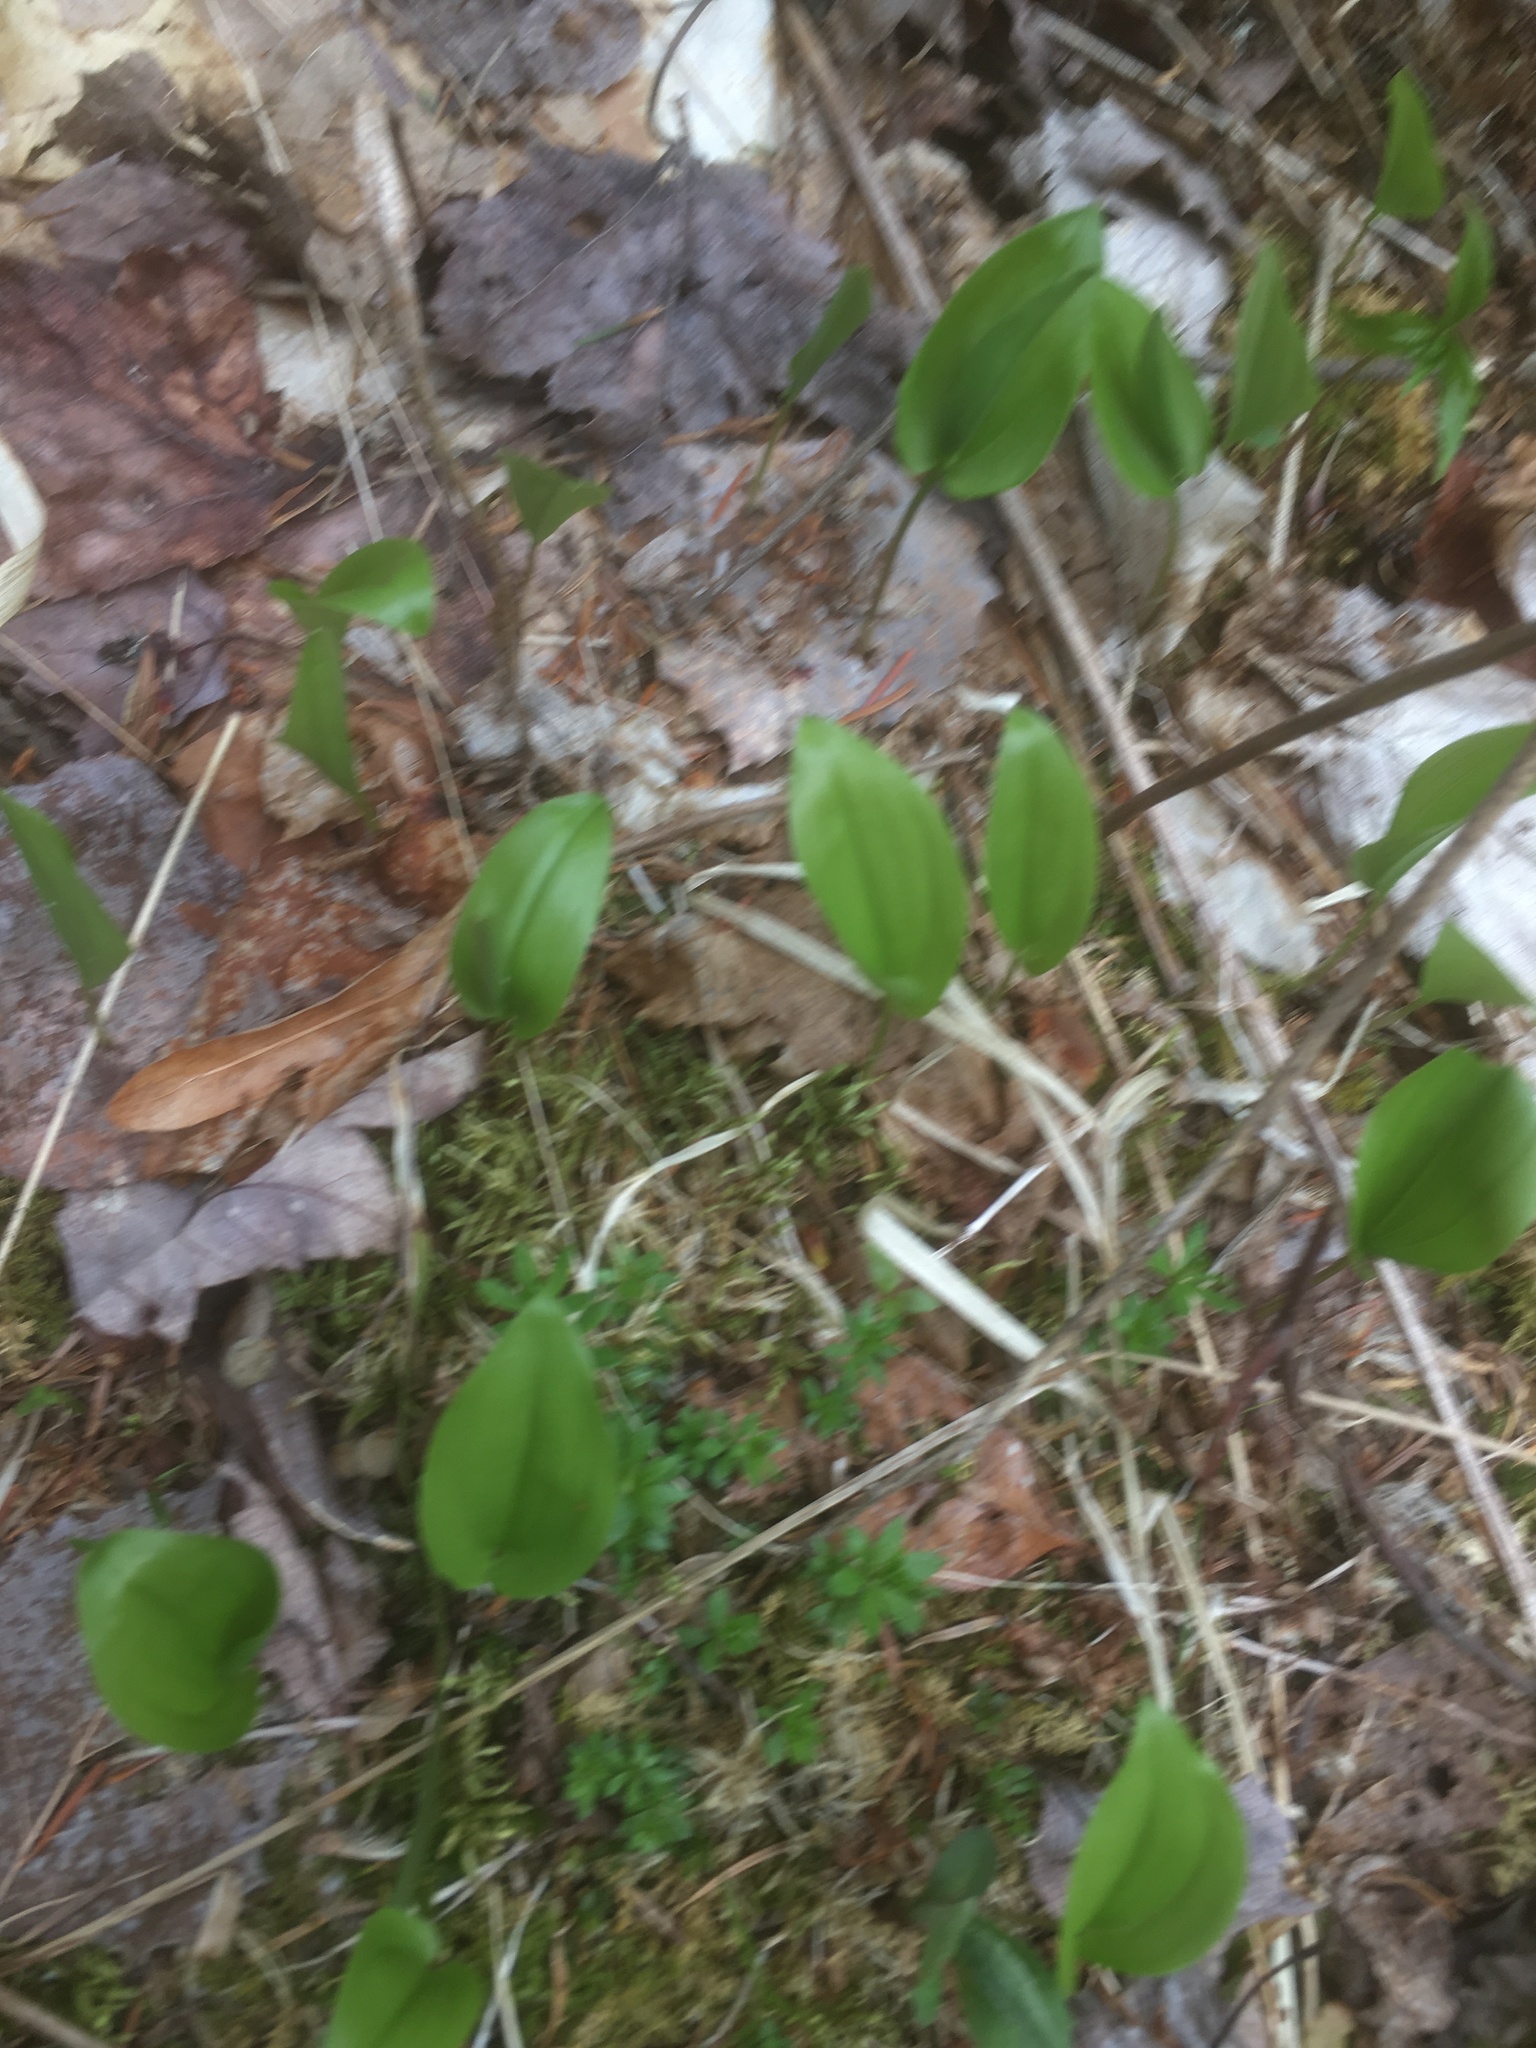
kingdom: Plantae
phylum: Tracheophyta
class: Liliopsida
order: Asparagales
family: Asparagaceae
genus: Maianthemum
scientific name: Maianthemum canadense
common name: False lily-of-the-valley
